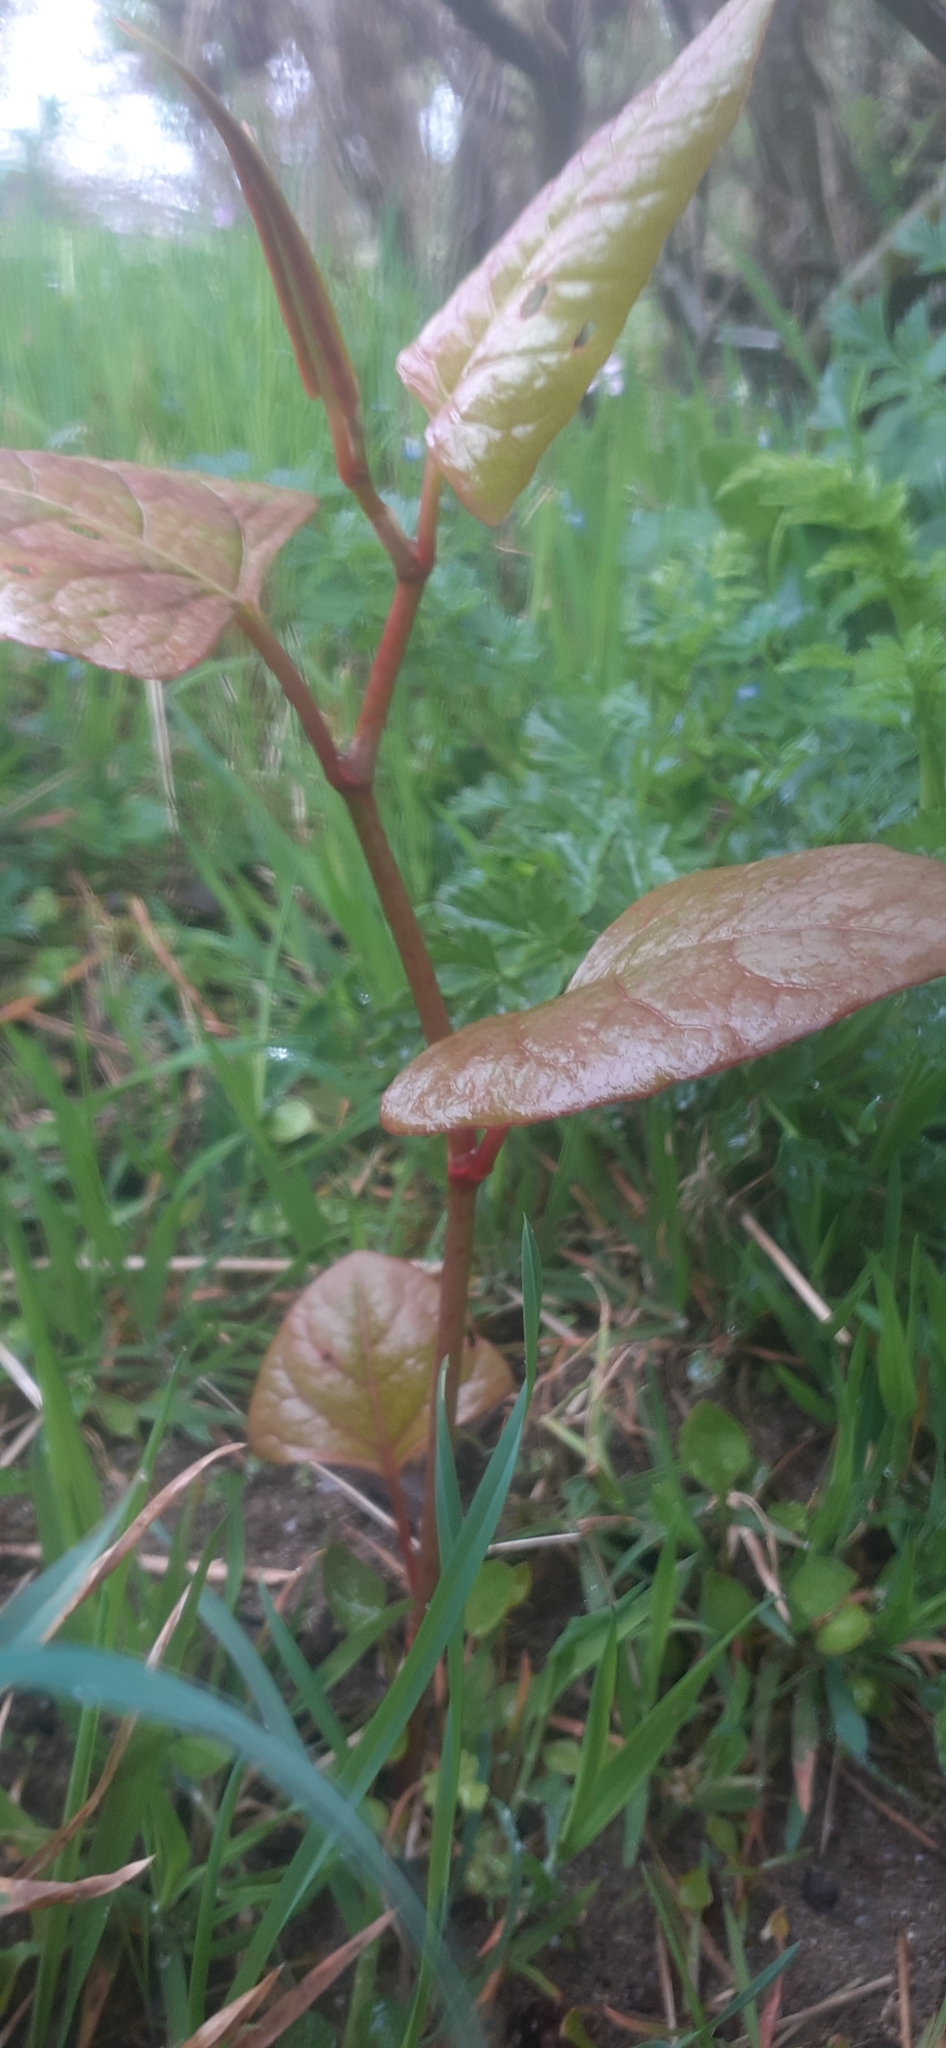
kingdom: Plantae
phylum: Tracheophyta
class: Magnoliopsida
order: Caryophyllales
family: Polygonaceae
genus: Reynoutria
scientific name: Reynoutria japonica
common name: Japanese knotweed
